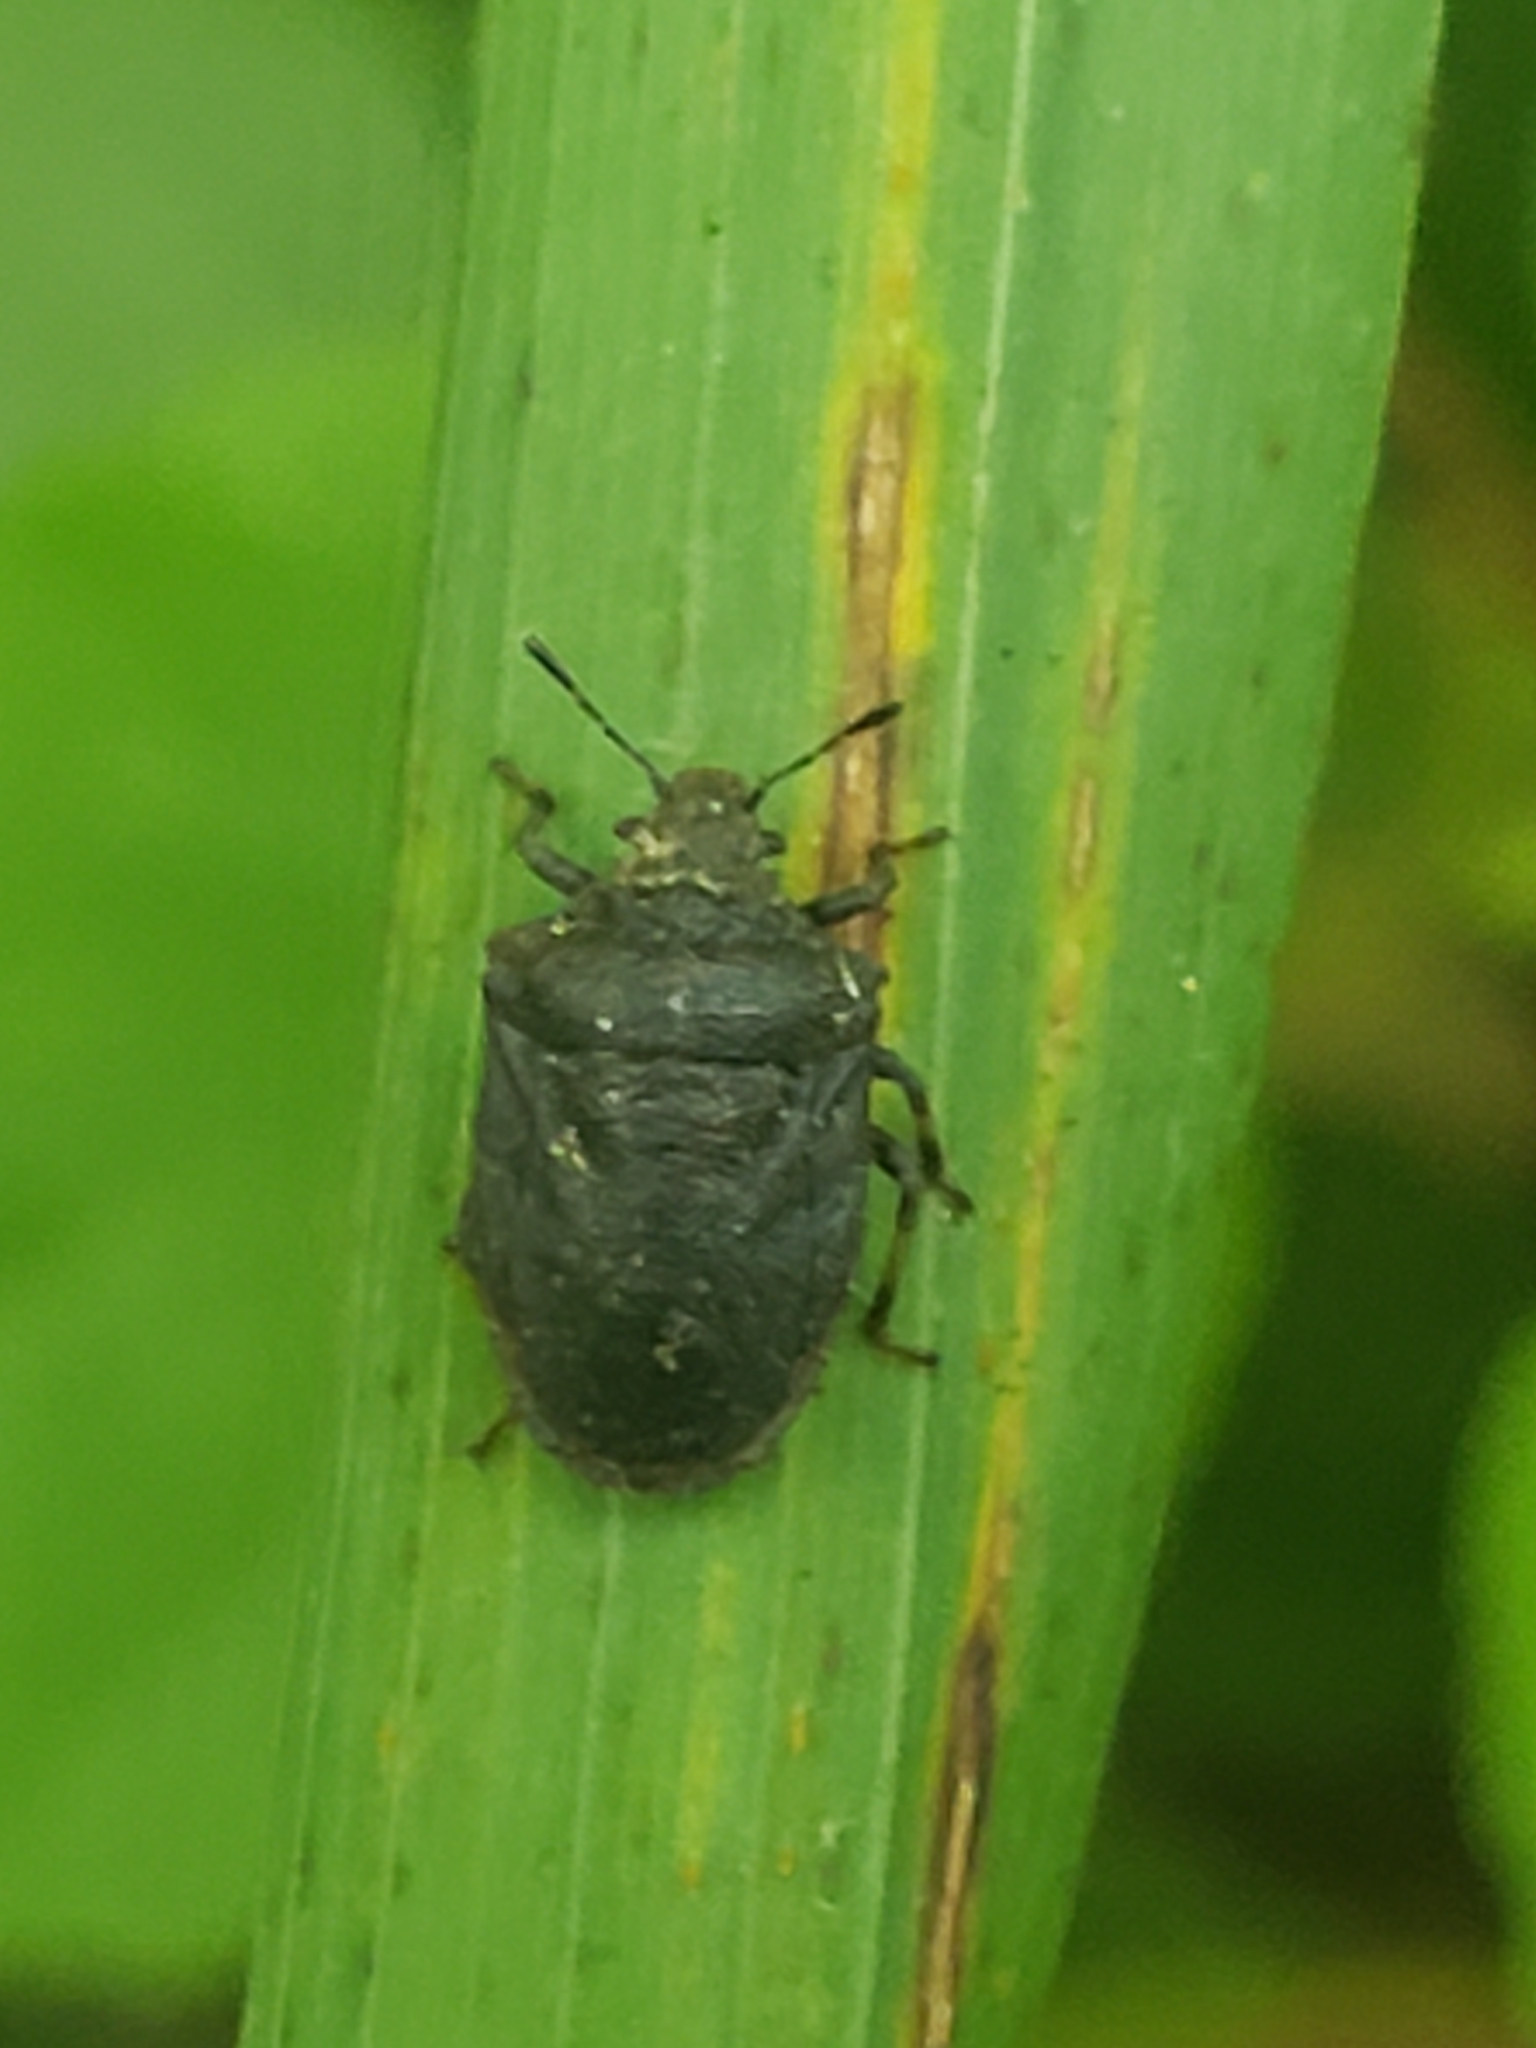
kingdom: Animalia
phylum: Arthropoda
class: Insecta
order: Hemiptera
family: Pentatomidae
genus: Amaurochrous
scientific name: Amaurochrous cinctipes
